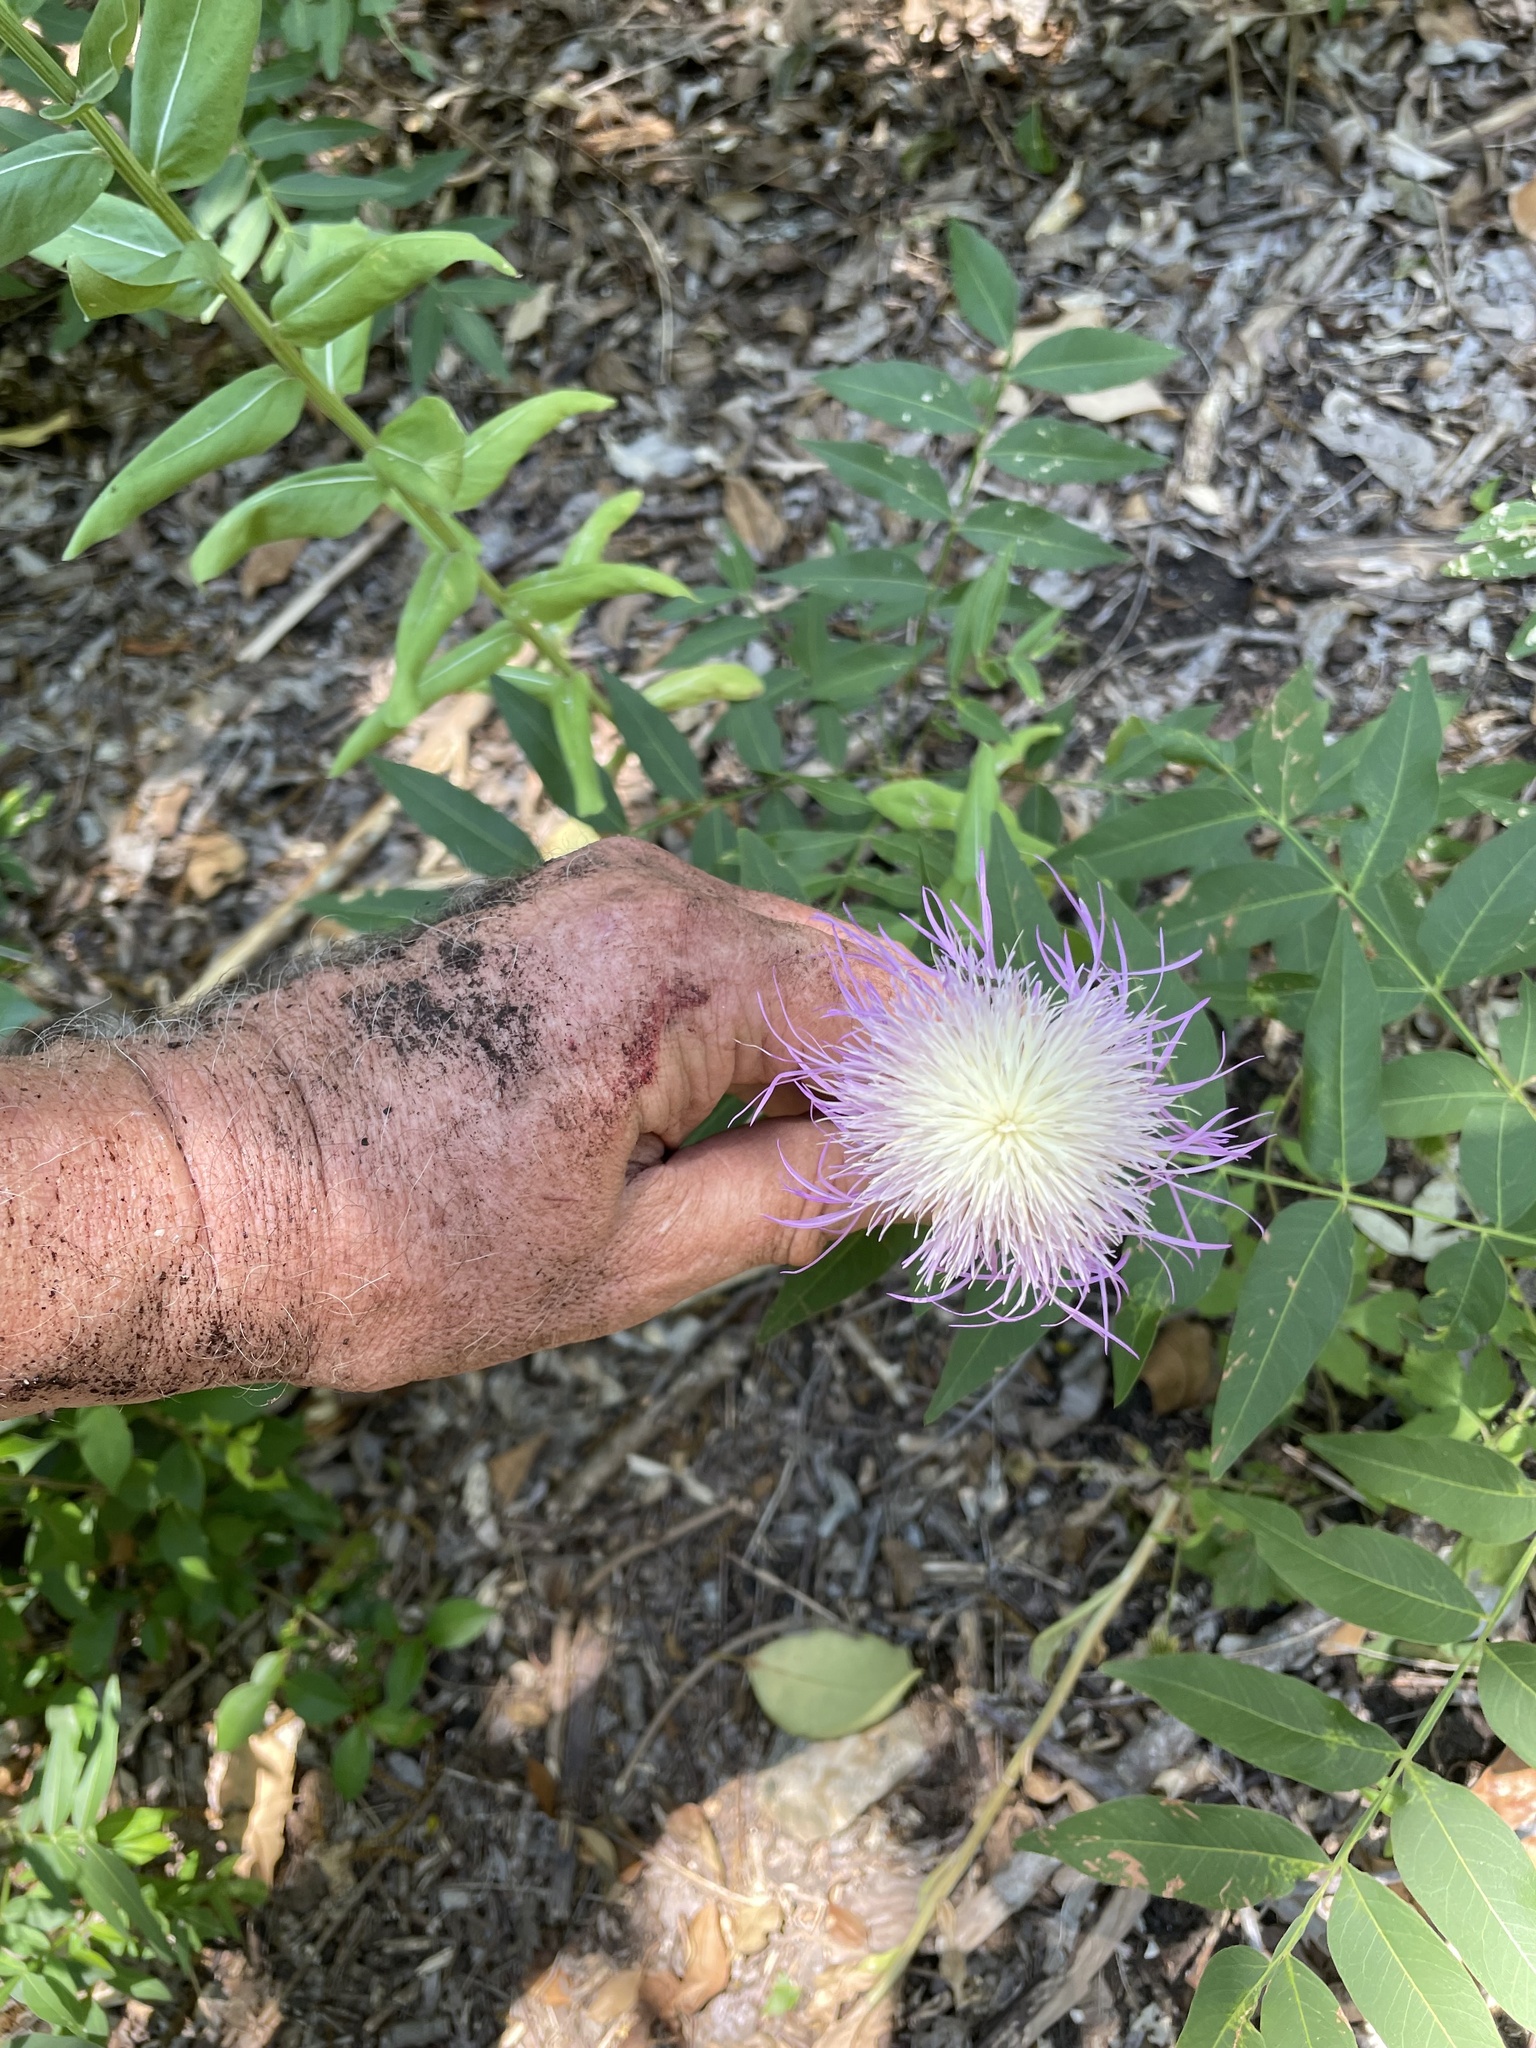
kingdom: Plantae
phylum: Tracheophyta
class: Magnoliopsida
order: Asterales
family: Asteraceae
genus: Plectocephalus
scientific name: Plectocephalus americanus
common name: American basket-flower
